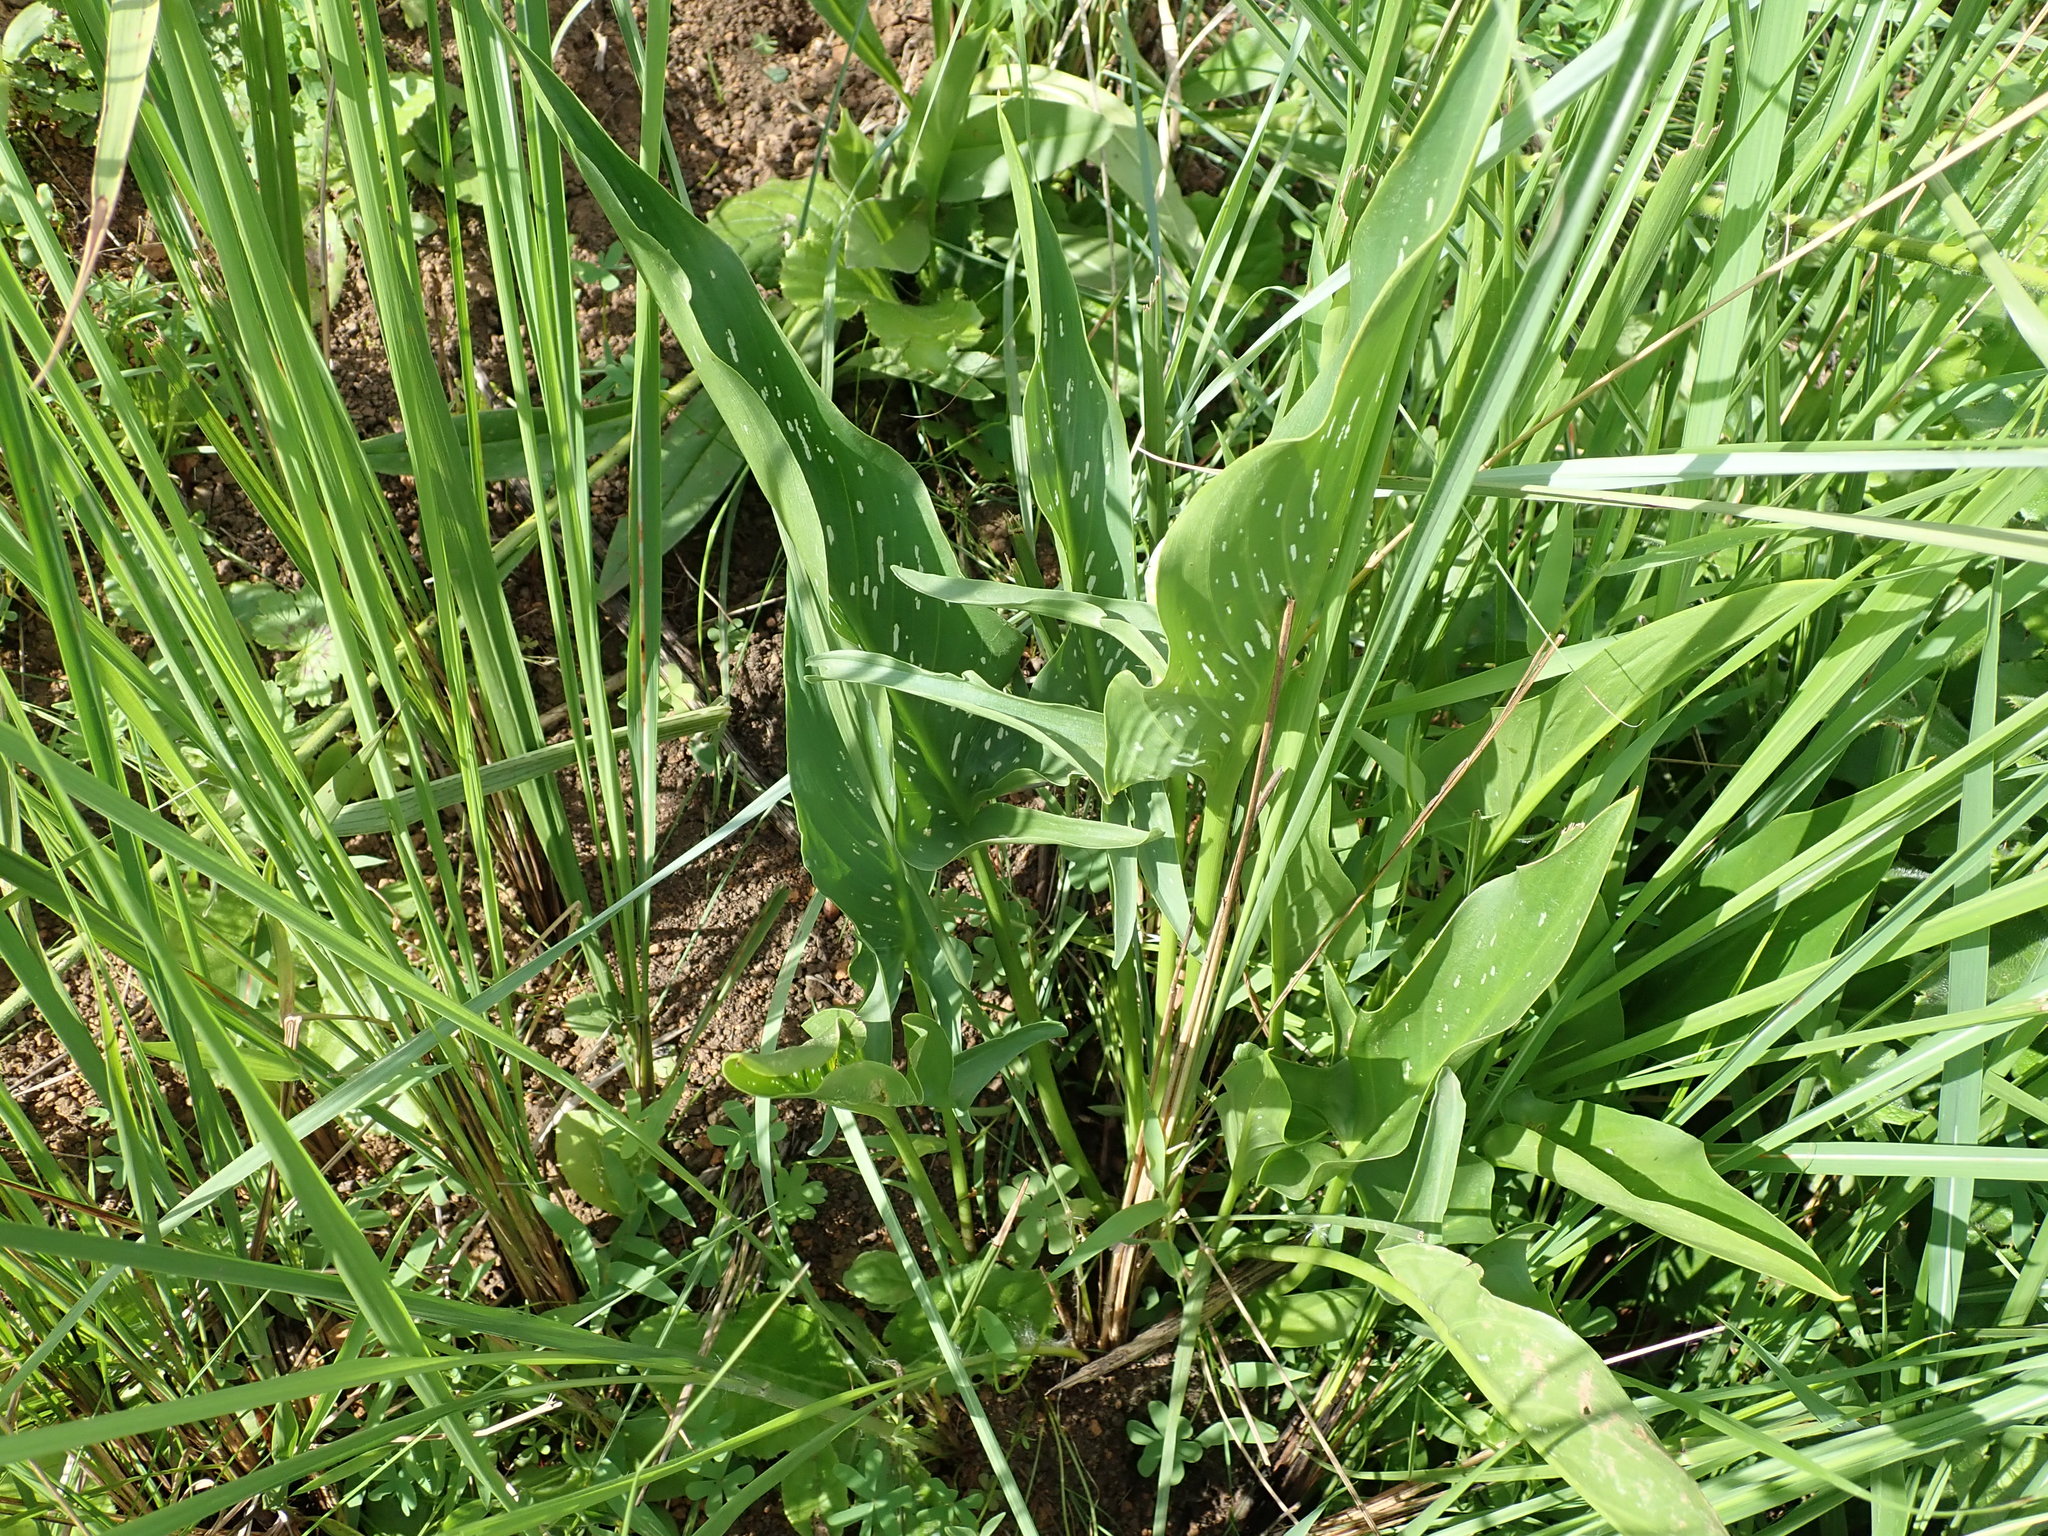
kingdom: Plantae
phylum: Tracheophyta
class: Liliopsida
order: Alismatales
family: Araceae
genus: Zantedeschia
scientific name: Zantedeschia albomaculata
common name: Spotted calla lily
